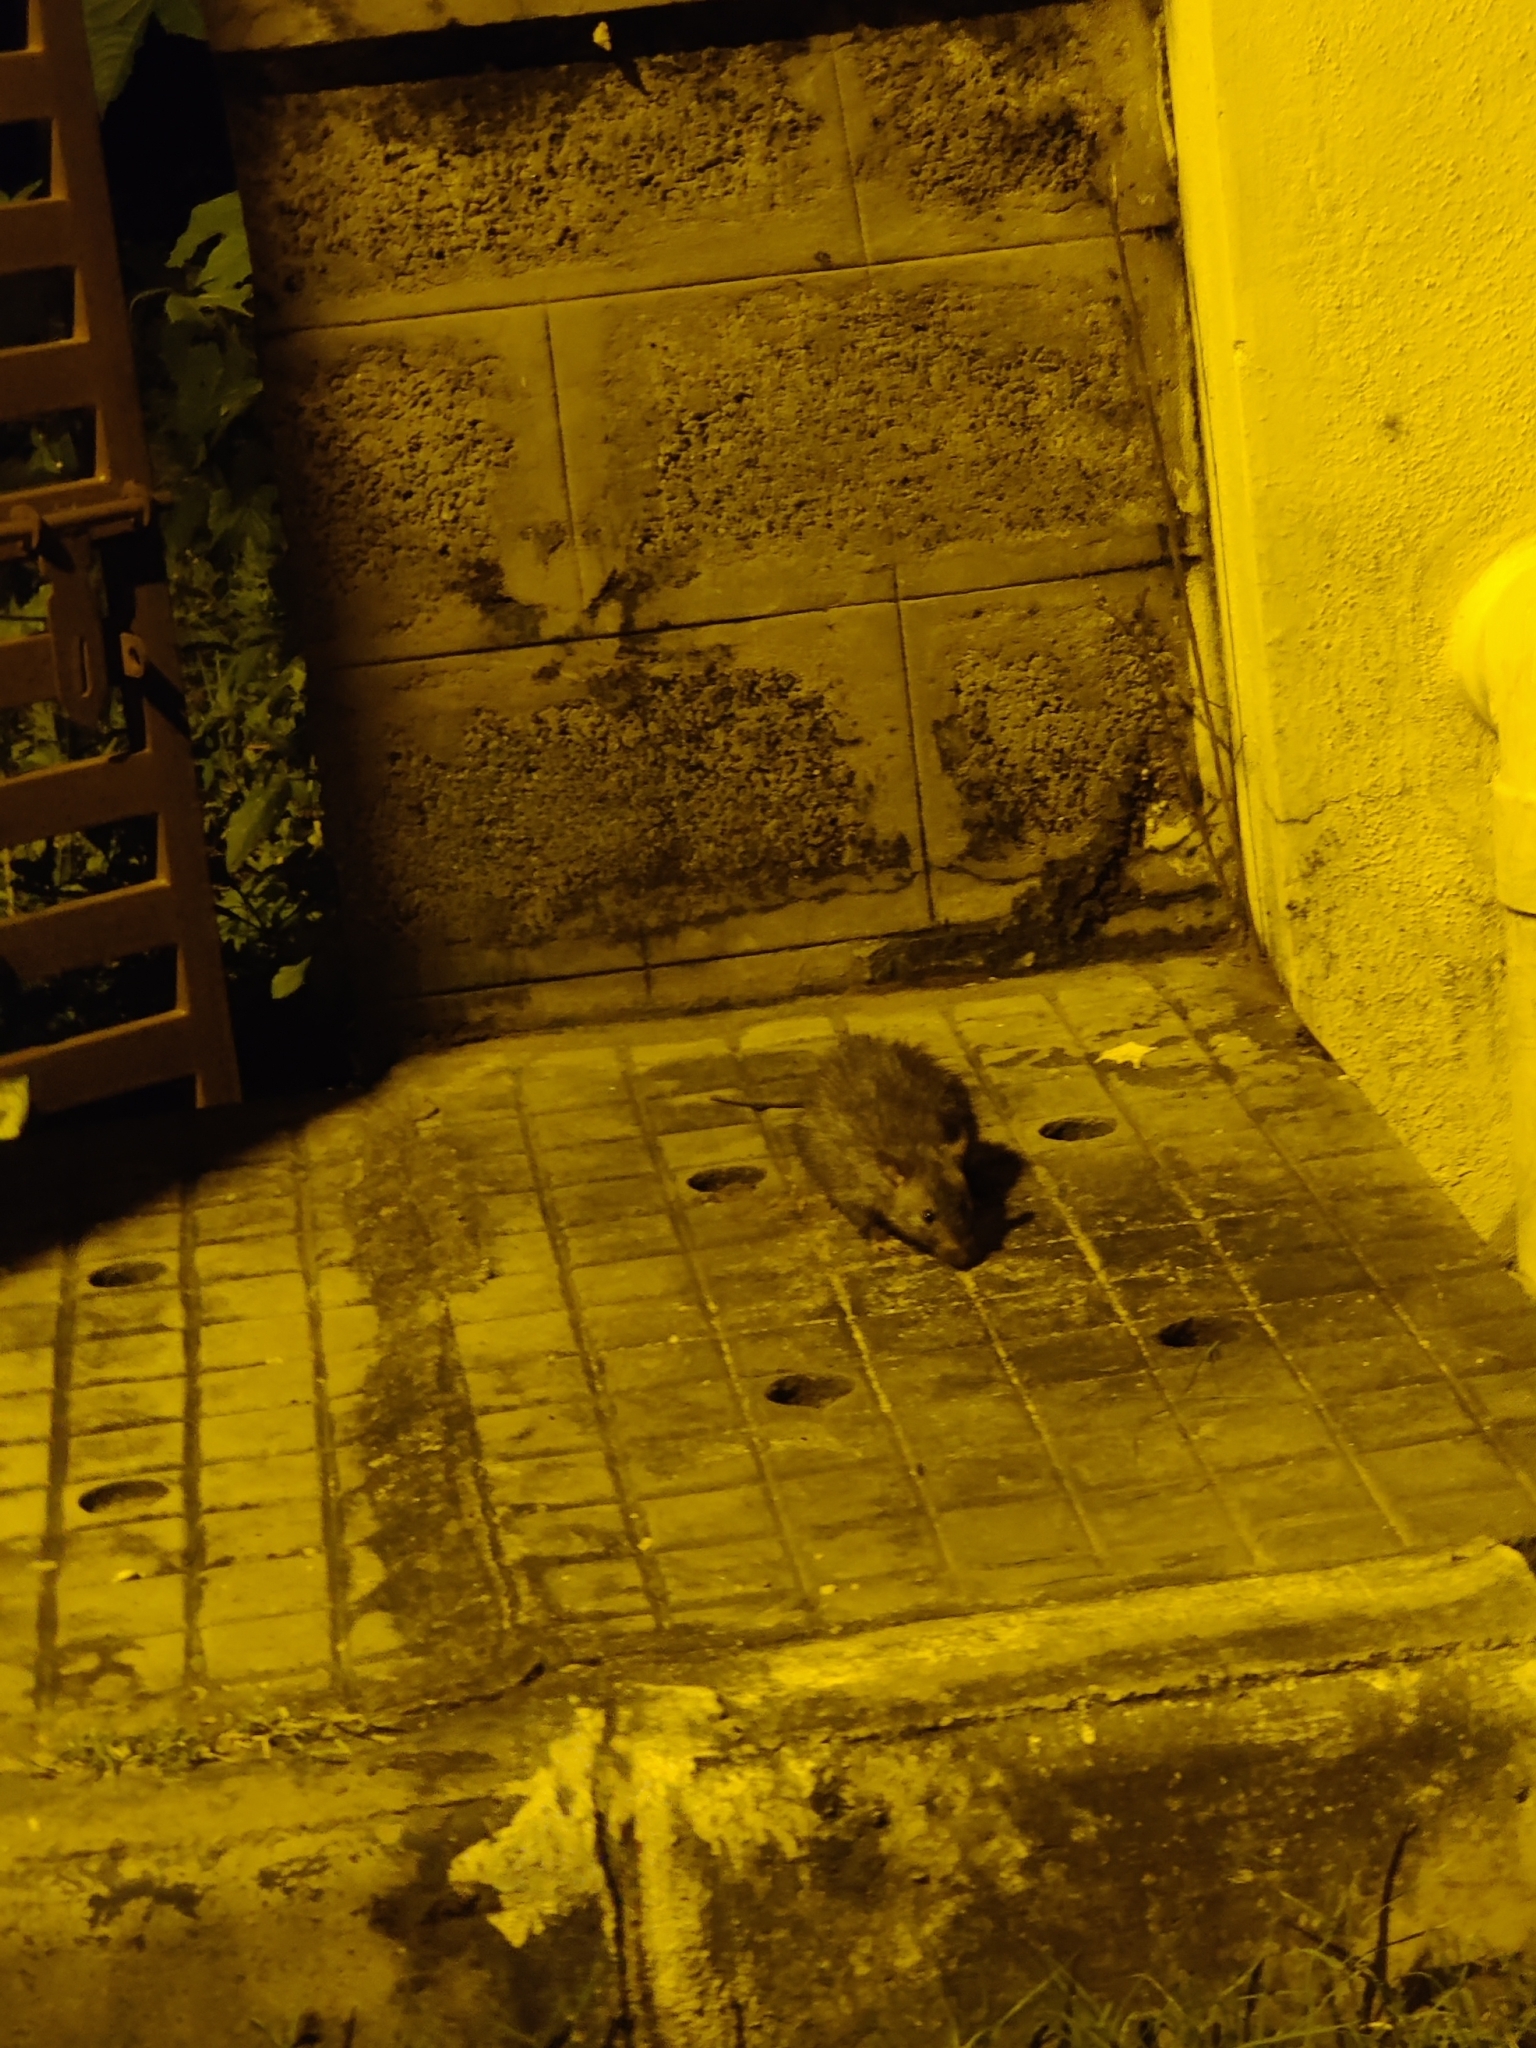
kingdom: Animalia
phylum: Chordata
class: Mammalia
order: Rodentia
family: Muridae
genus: Bandicota
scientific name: Bandicota bengalensis
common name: Lesser bandicoot rat
